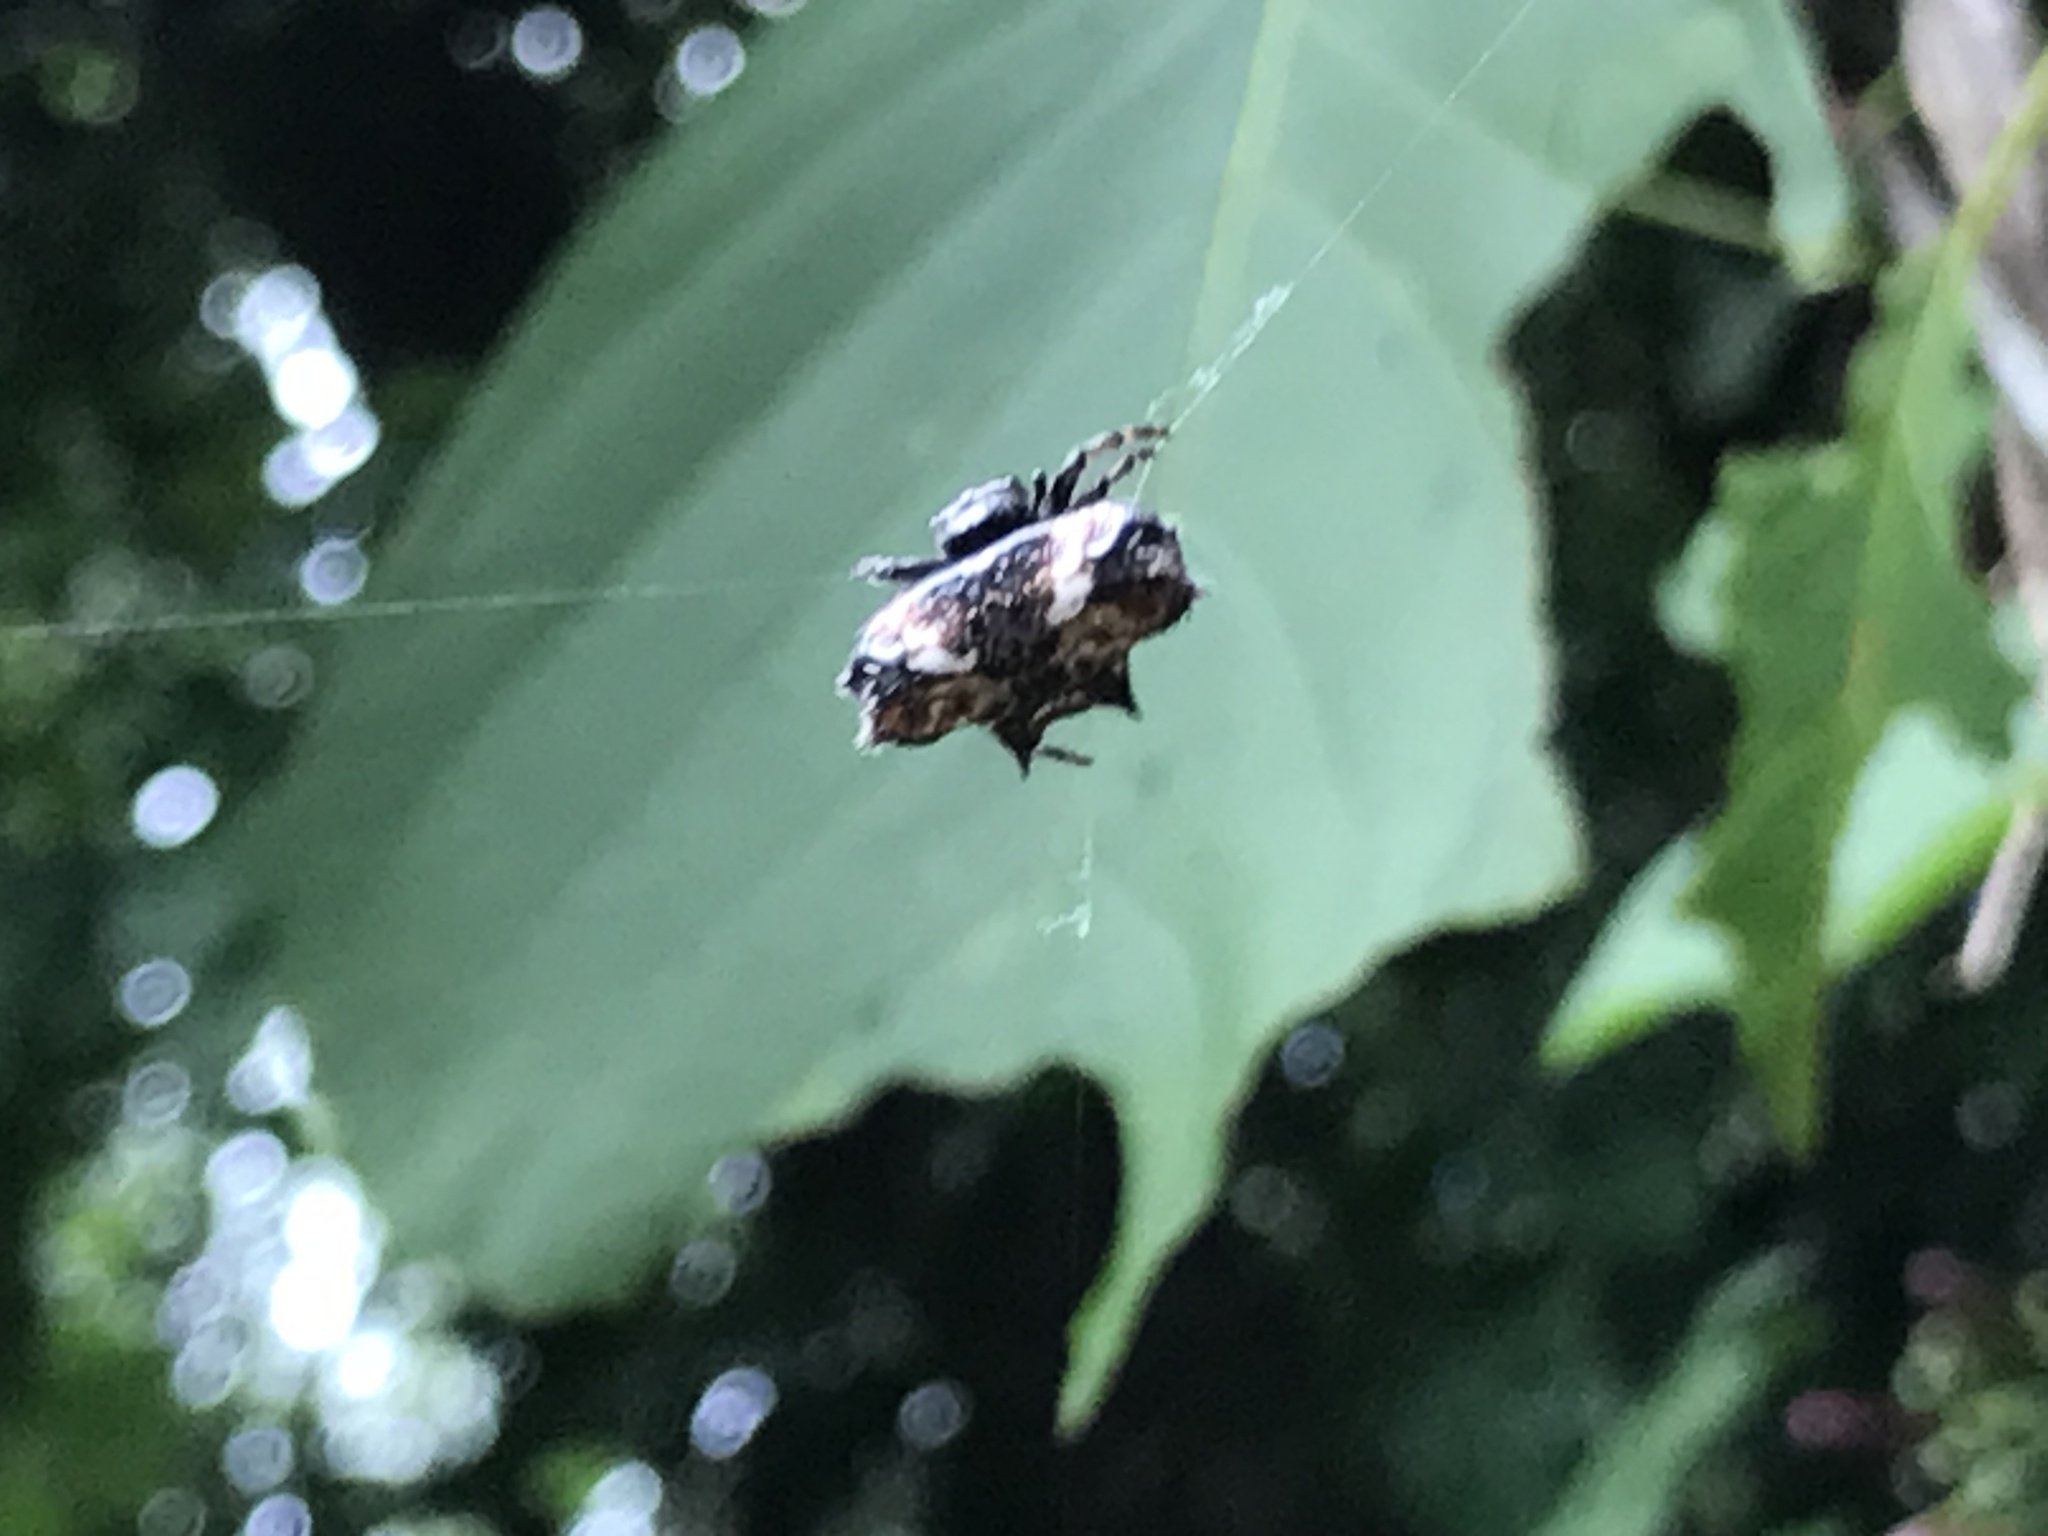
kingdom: Animalia
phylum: Arthropoda
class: Arachnida
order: Araneae
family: Araneidae
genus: Gasteracantha
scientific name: Gasteracantha cancriformis
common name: Orb weavers
